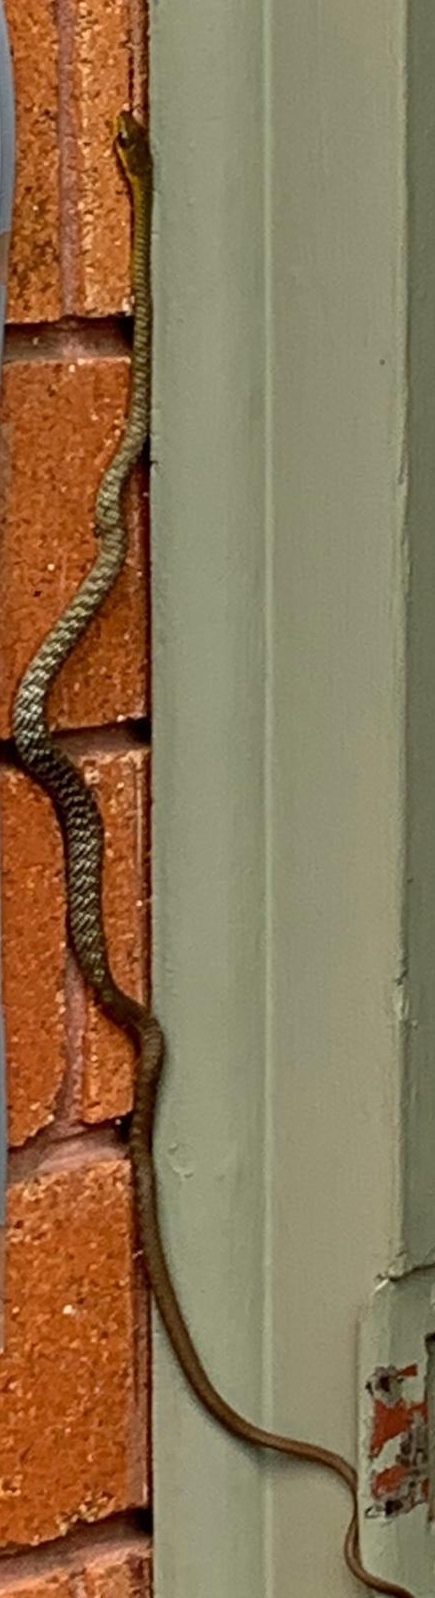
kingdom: Animalia
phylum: Chordata
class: Squamata
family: Colubridae
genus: Dendrelaphis
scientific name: Dendrelaphis punctulatus
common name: Common tree snake
